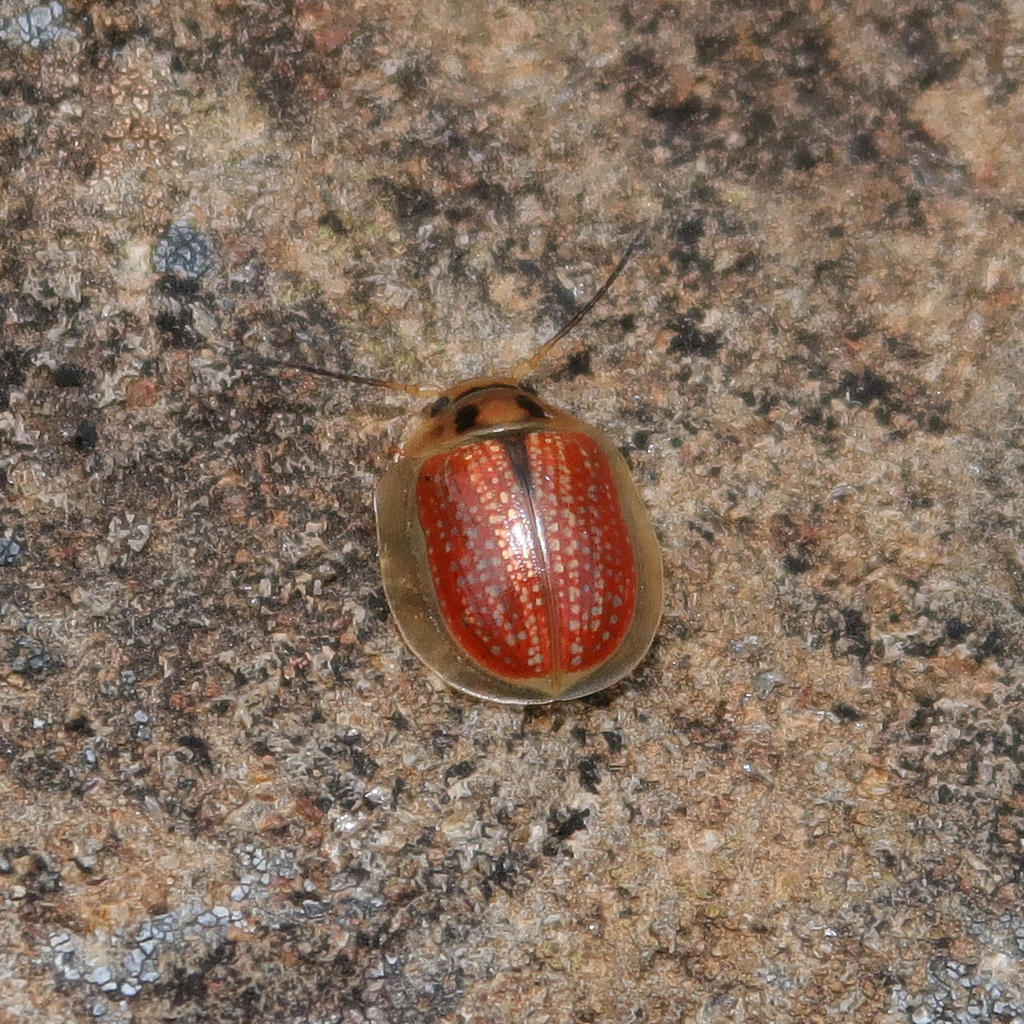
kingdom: Animalia
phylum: Arthropoda
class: Insecta
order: Coleoptera
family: Chrysomelidae
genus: Paropsisterna
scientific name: Paropsisterna bimaculata
